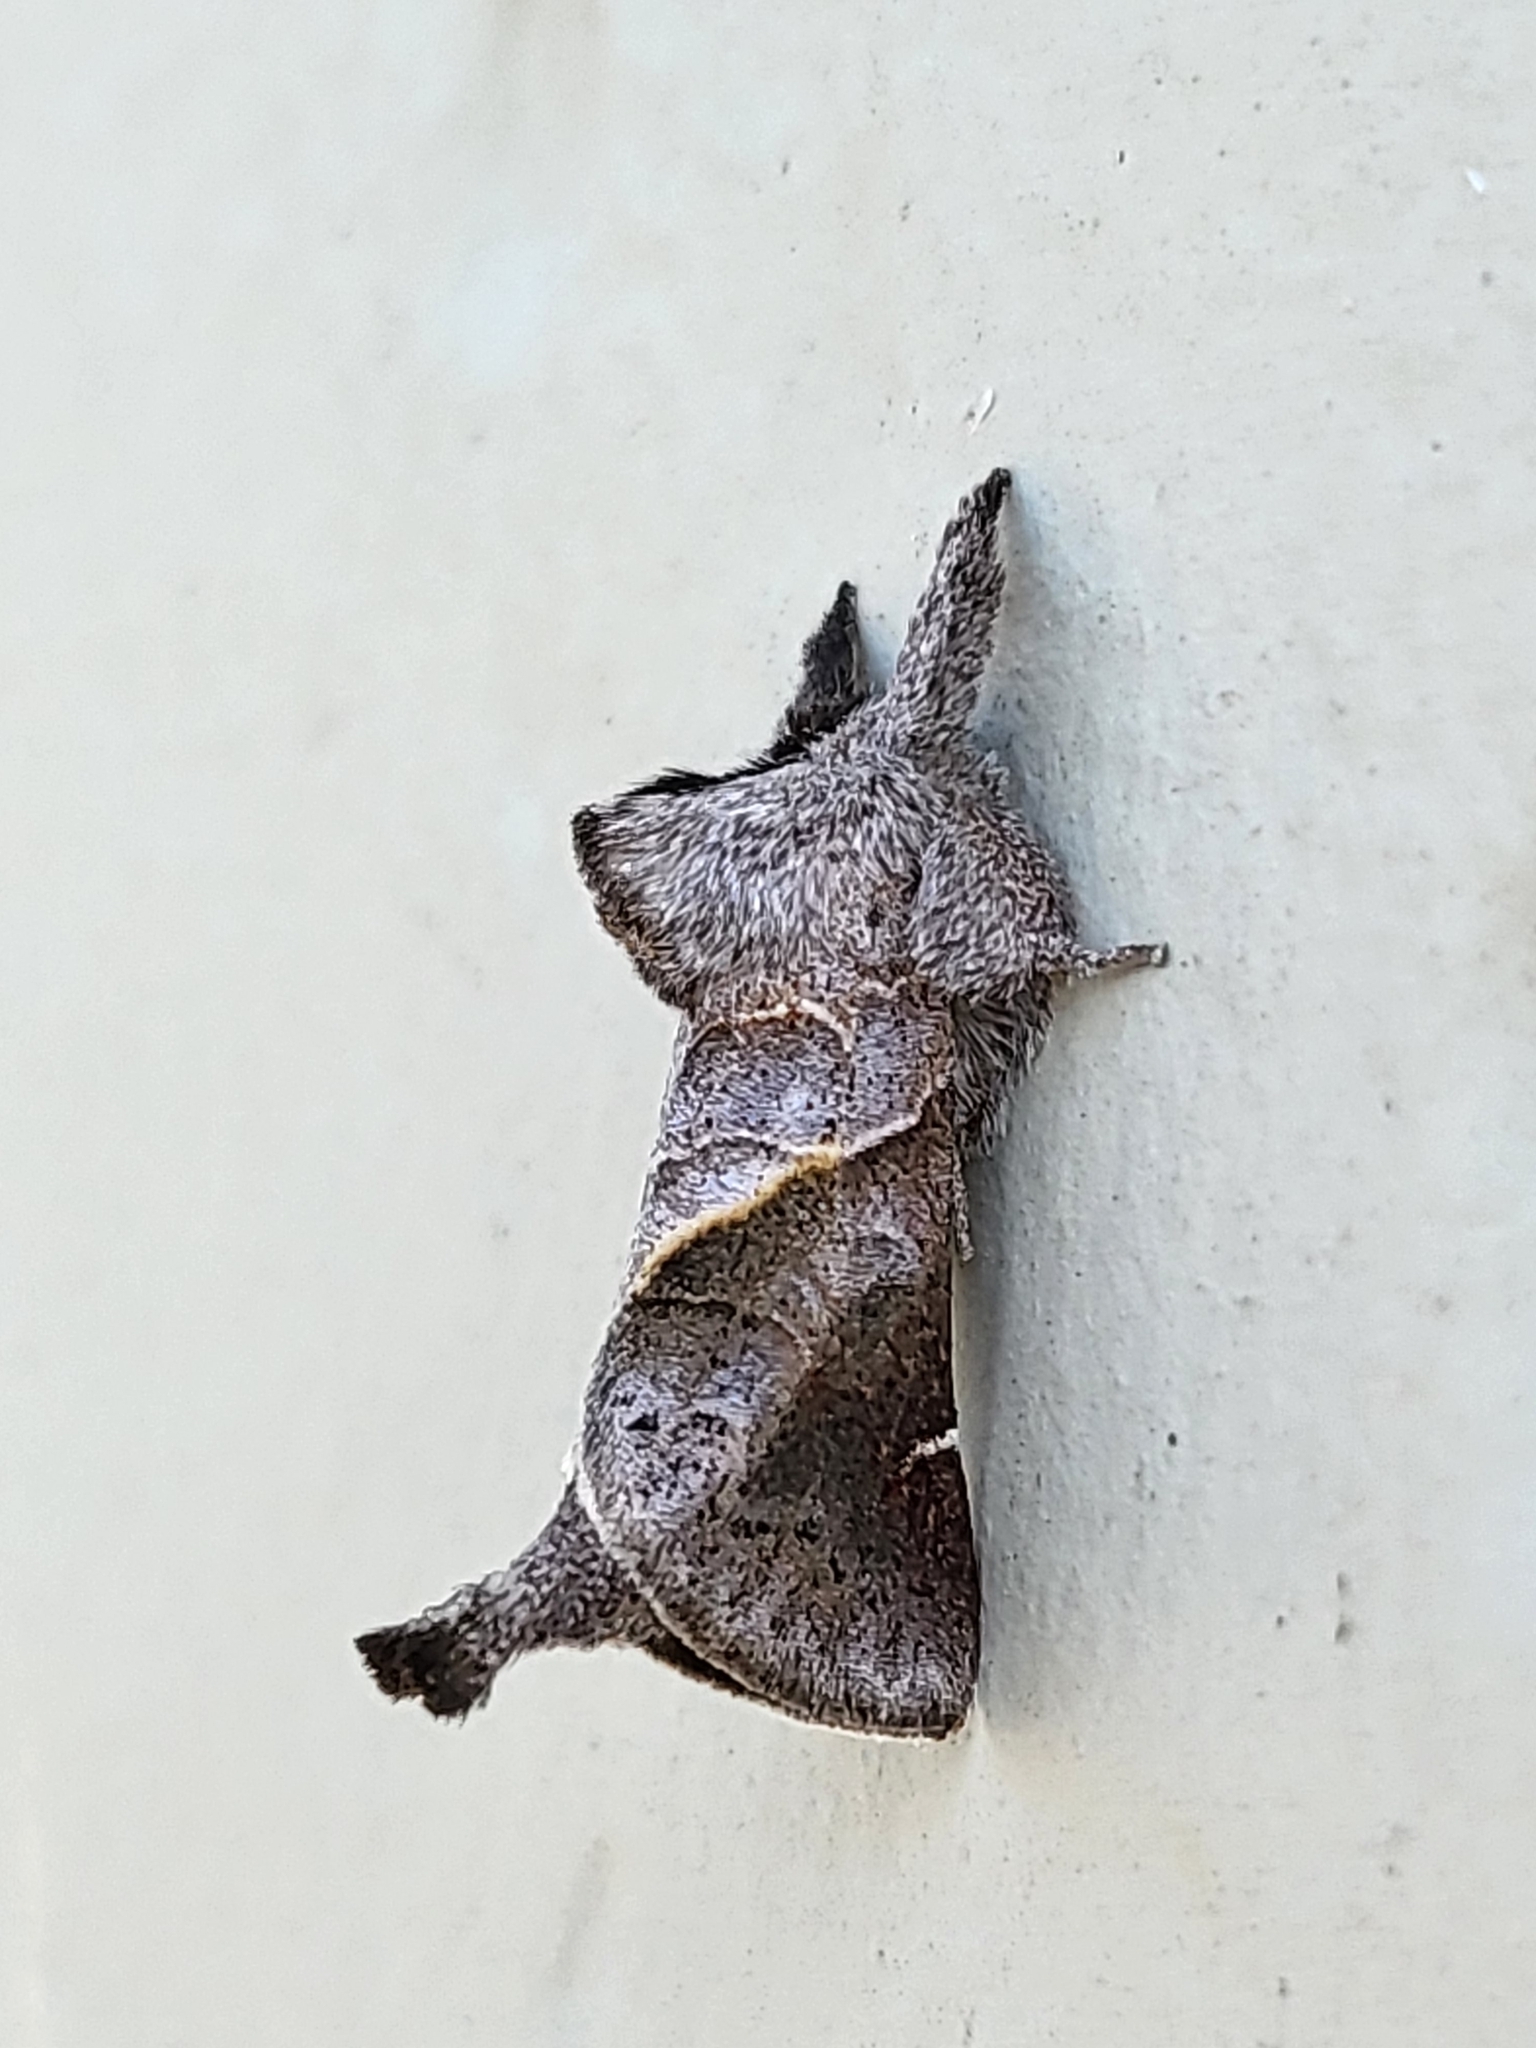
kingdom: Animalia
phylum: Arthropoda
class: Insecta
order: Lepidoptera
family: Notodontidae
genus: Clostera
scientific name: Clostera apicalis
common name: Apical prominent
